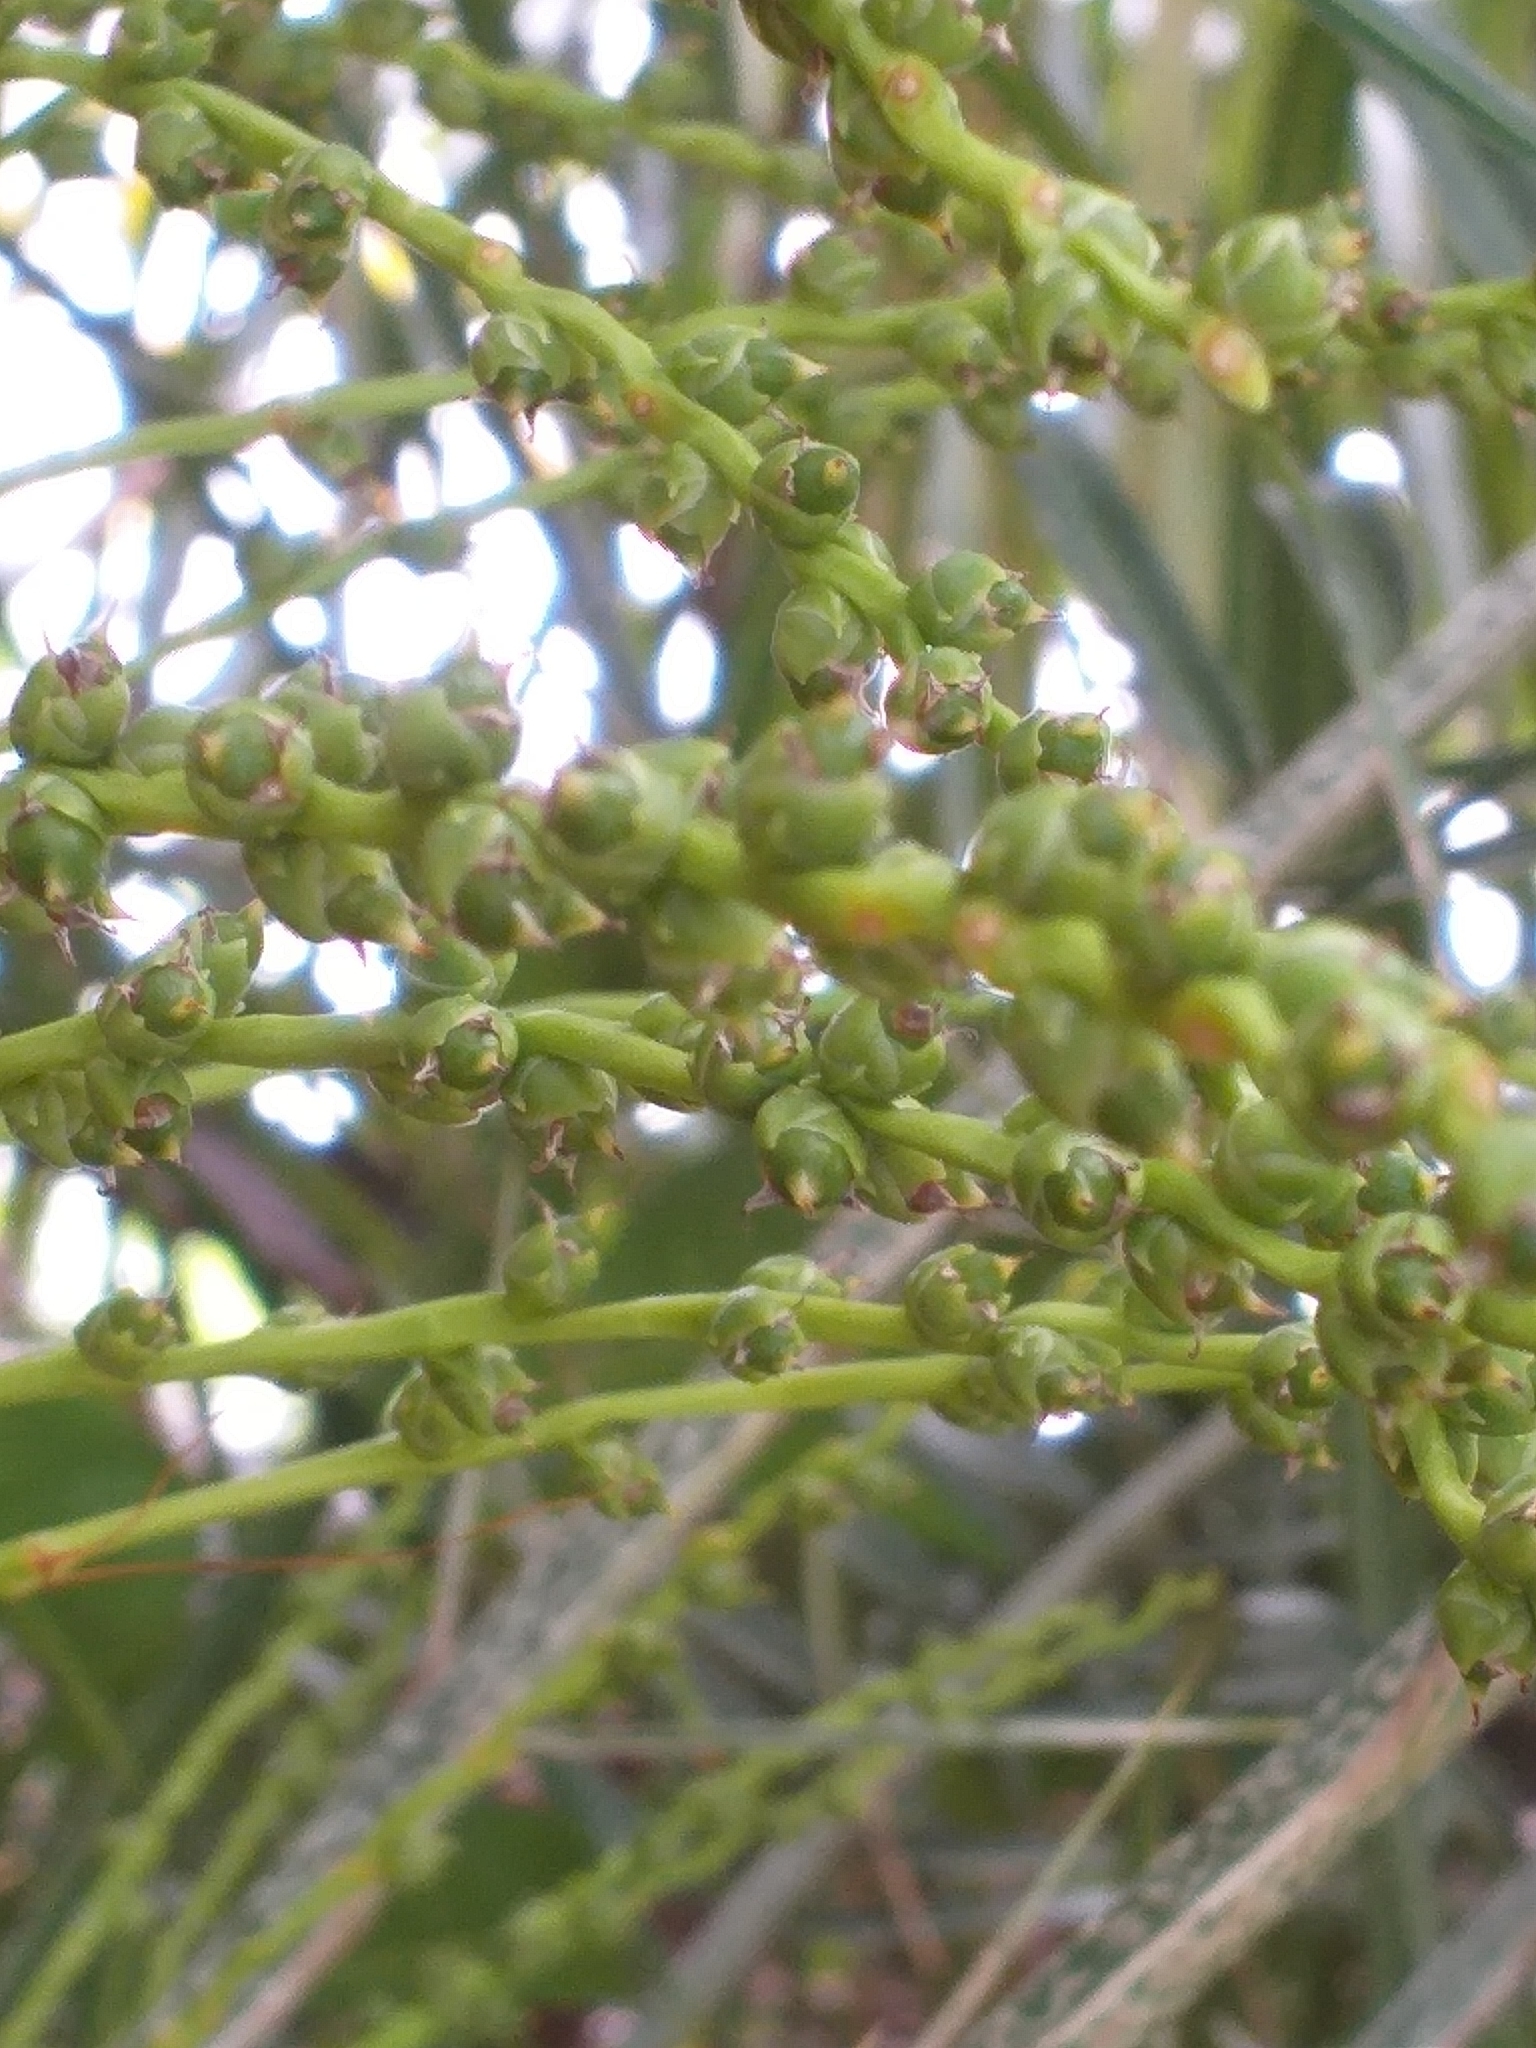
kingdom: Plantae
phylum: Tracheophyta
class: Liliopsida
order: Arecales
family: Arecaceae
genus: Phoenix
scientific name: Phoenix roebelenii
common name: Roebelin palm
